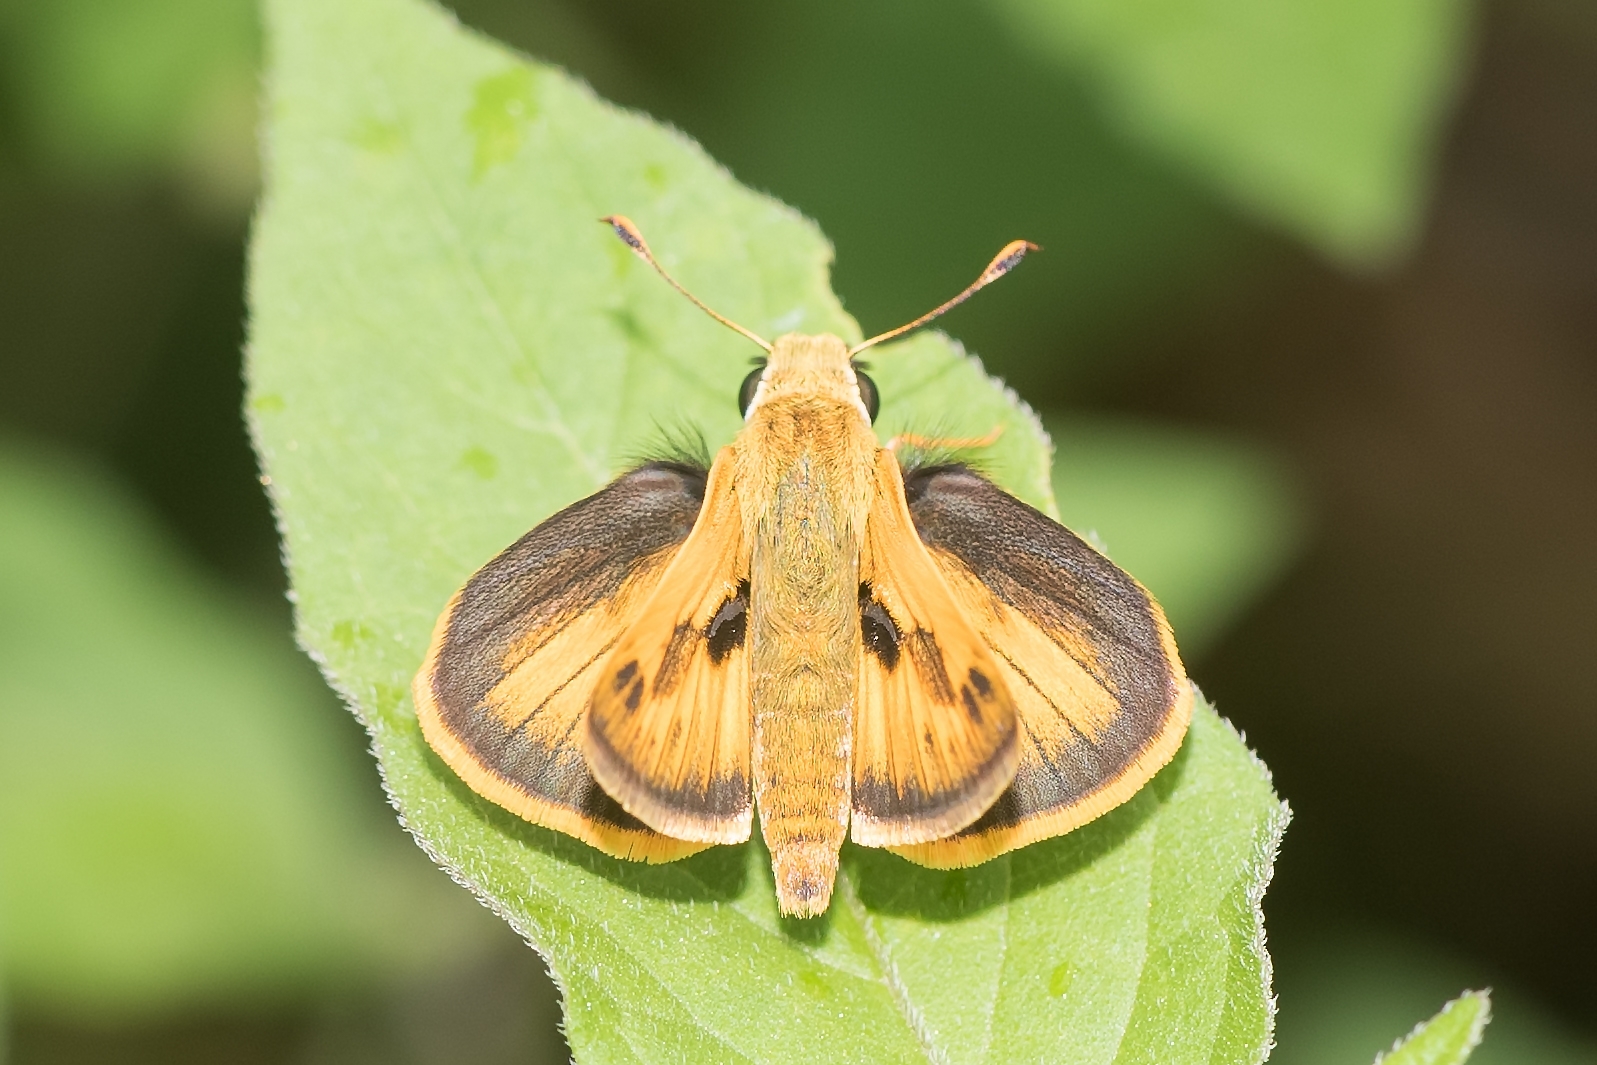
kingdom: Animalia
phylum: Arthropoda
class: Insecta
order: Lepidoptera
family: Hesperiidae
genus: Polites
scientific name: Polites vibex
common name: Whirlabout
